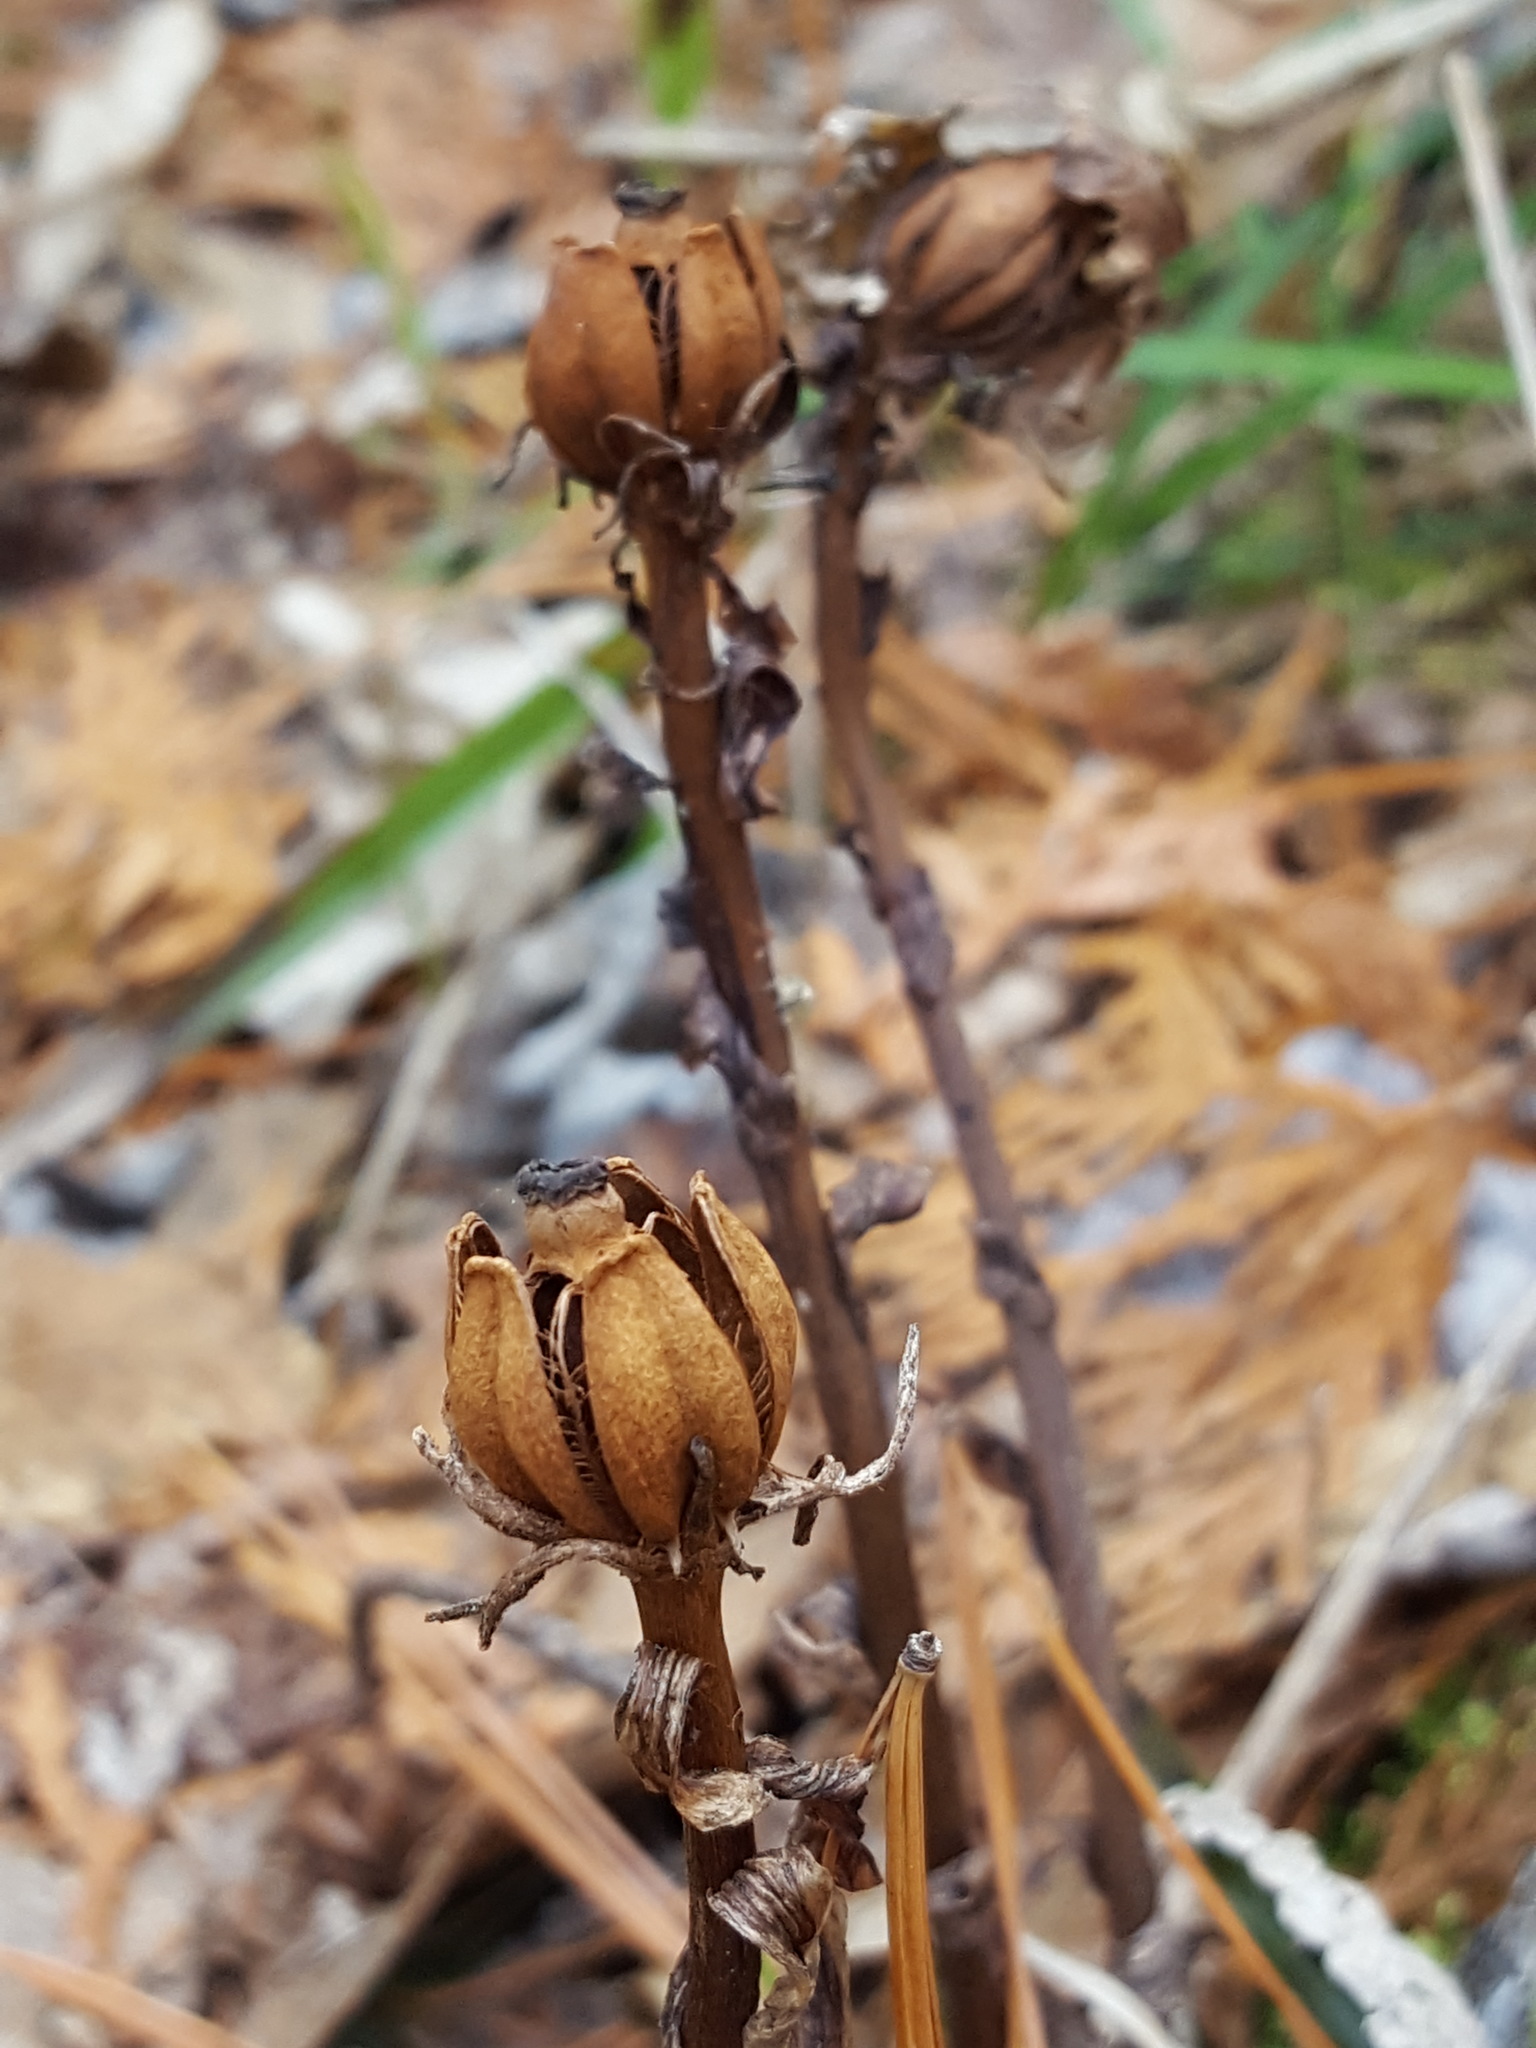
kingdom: Plantae
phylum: Tracheophyta
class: Magnoliopsida
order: Ericales
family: Ericaceae
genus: Monotropa
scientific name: Monotropa uniflora
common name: Convulsion root
